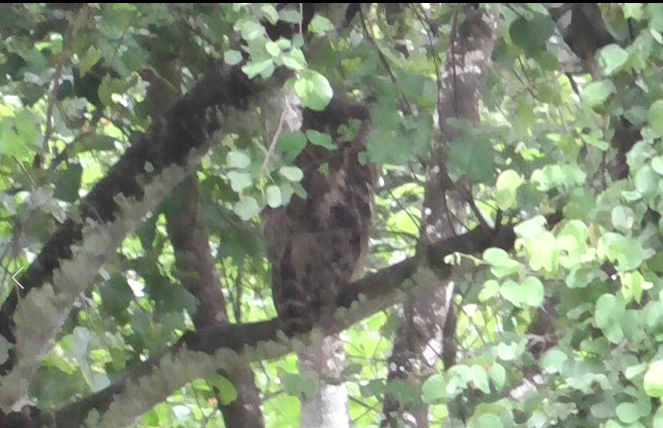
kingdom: Animalia
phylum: Chordata
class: Aves
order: Strigiformes
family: Strigidae
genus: Ketupa
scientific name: Ketupa zeylonensis
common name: Brown fish owl
